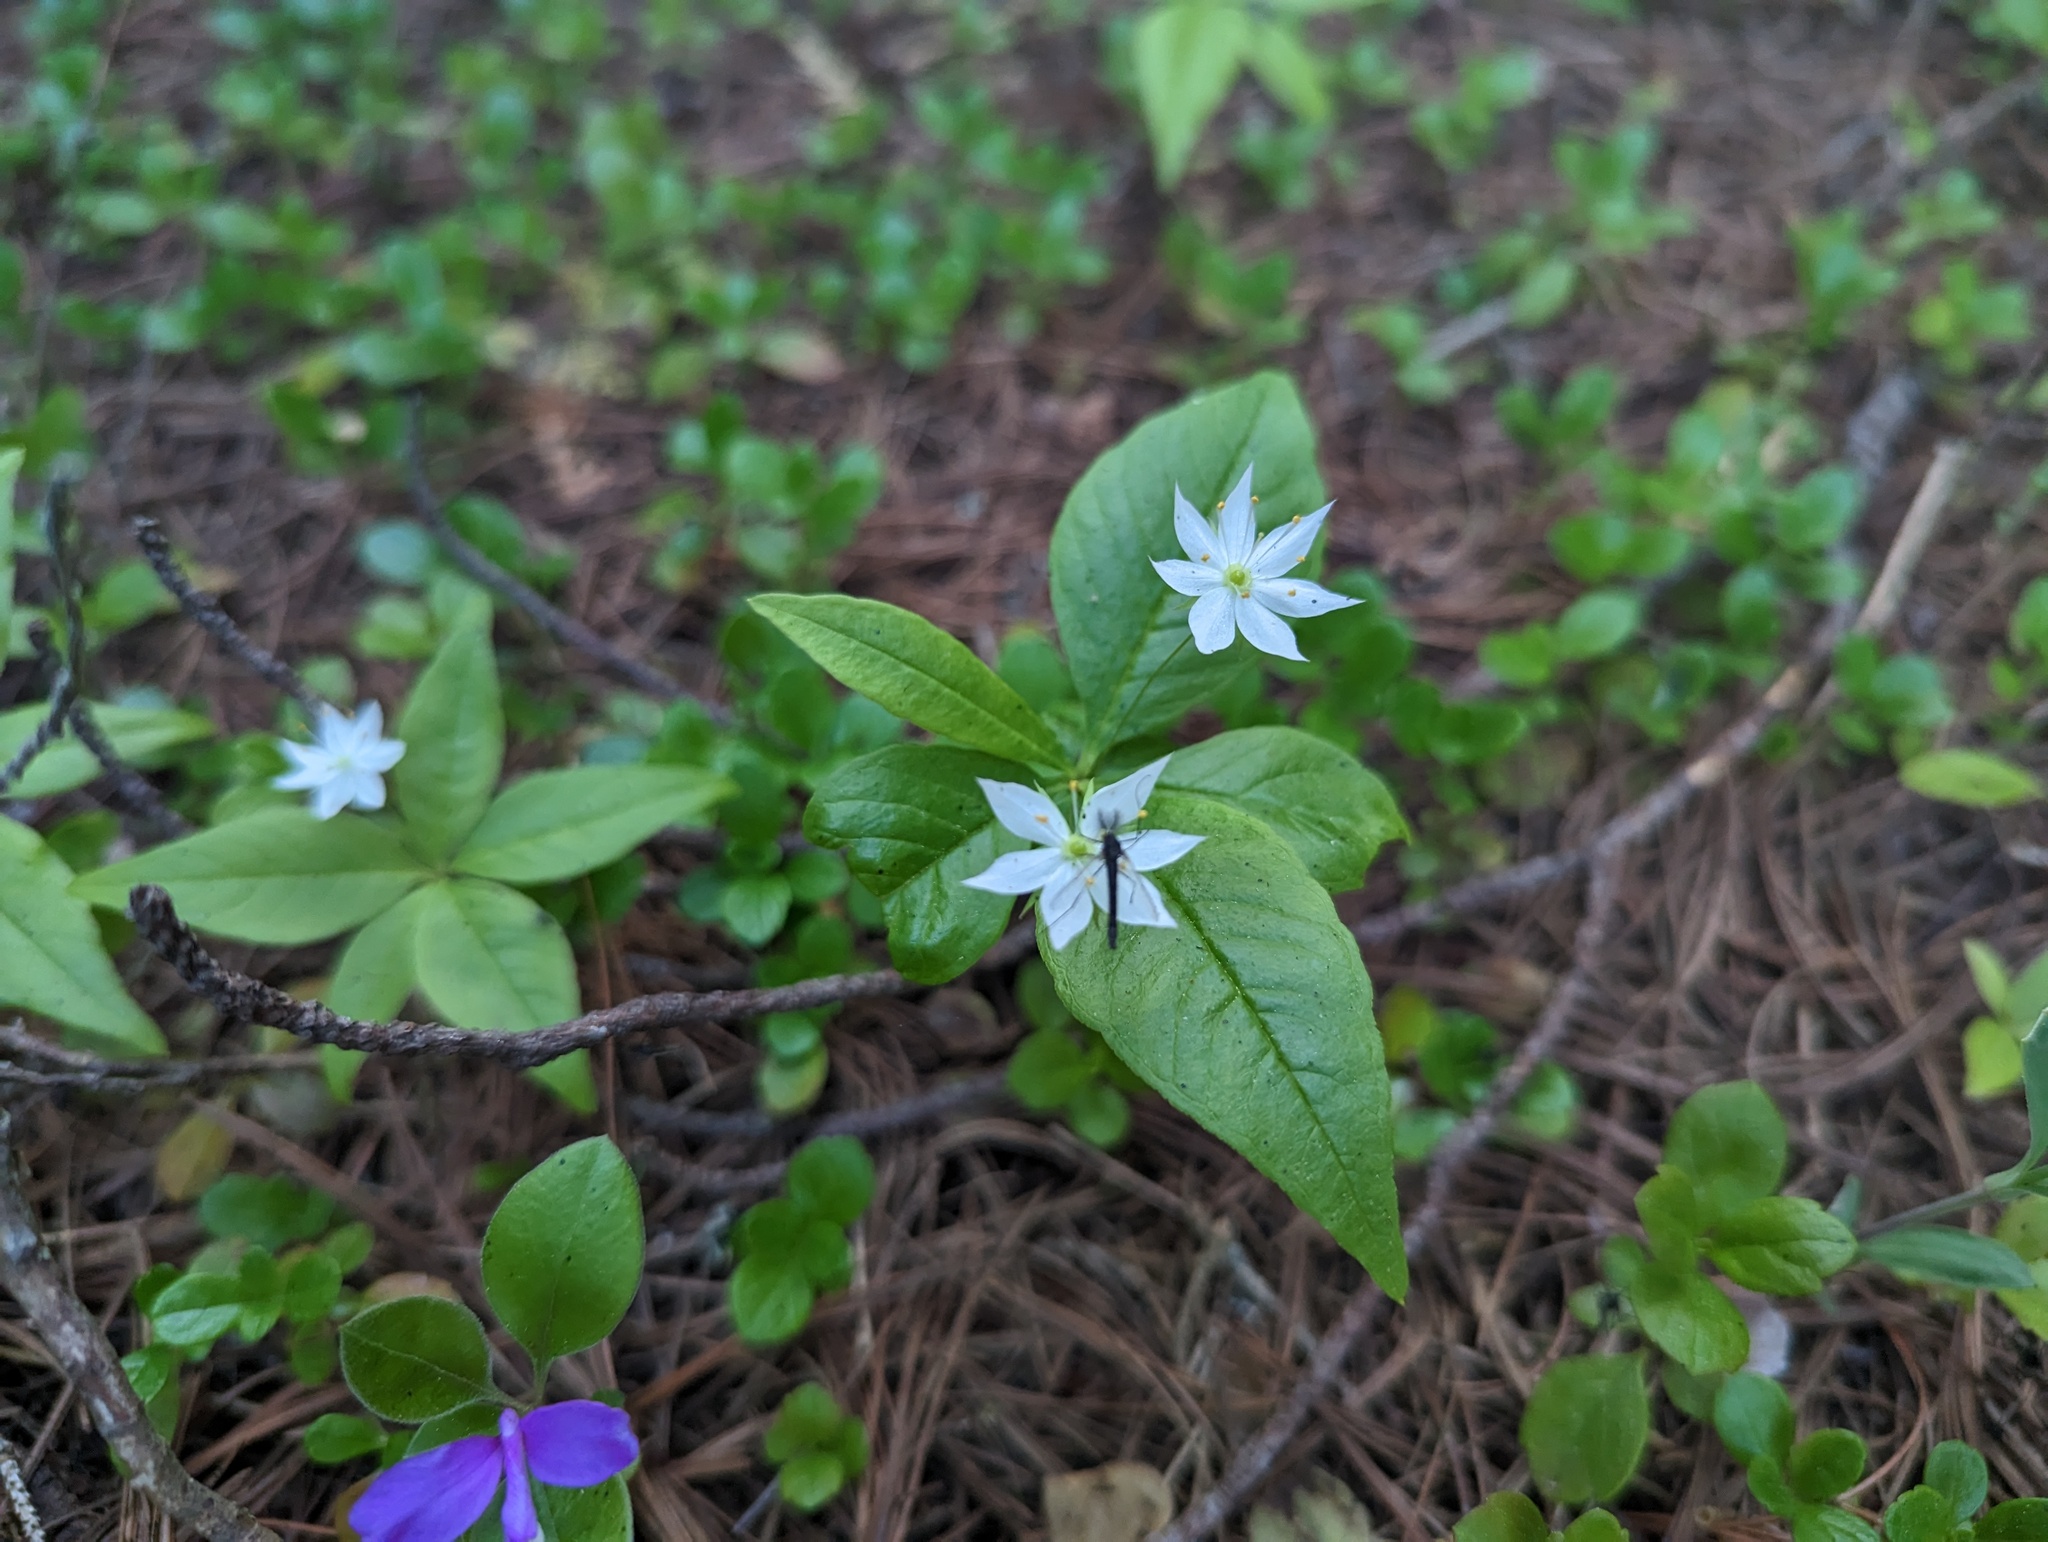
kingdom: Plantae
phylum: Tracheophyta
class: Magnoliopsida
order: Ericales
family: Primulaceae
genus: Lysimachia
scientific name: Lysimachia borealis
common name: American starflower
